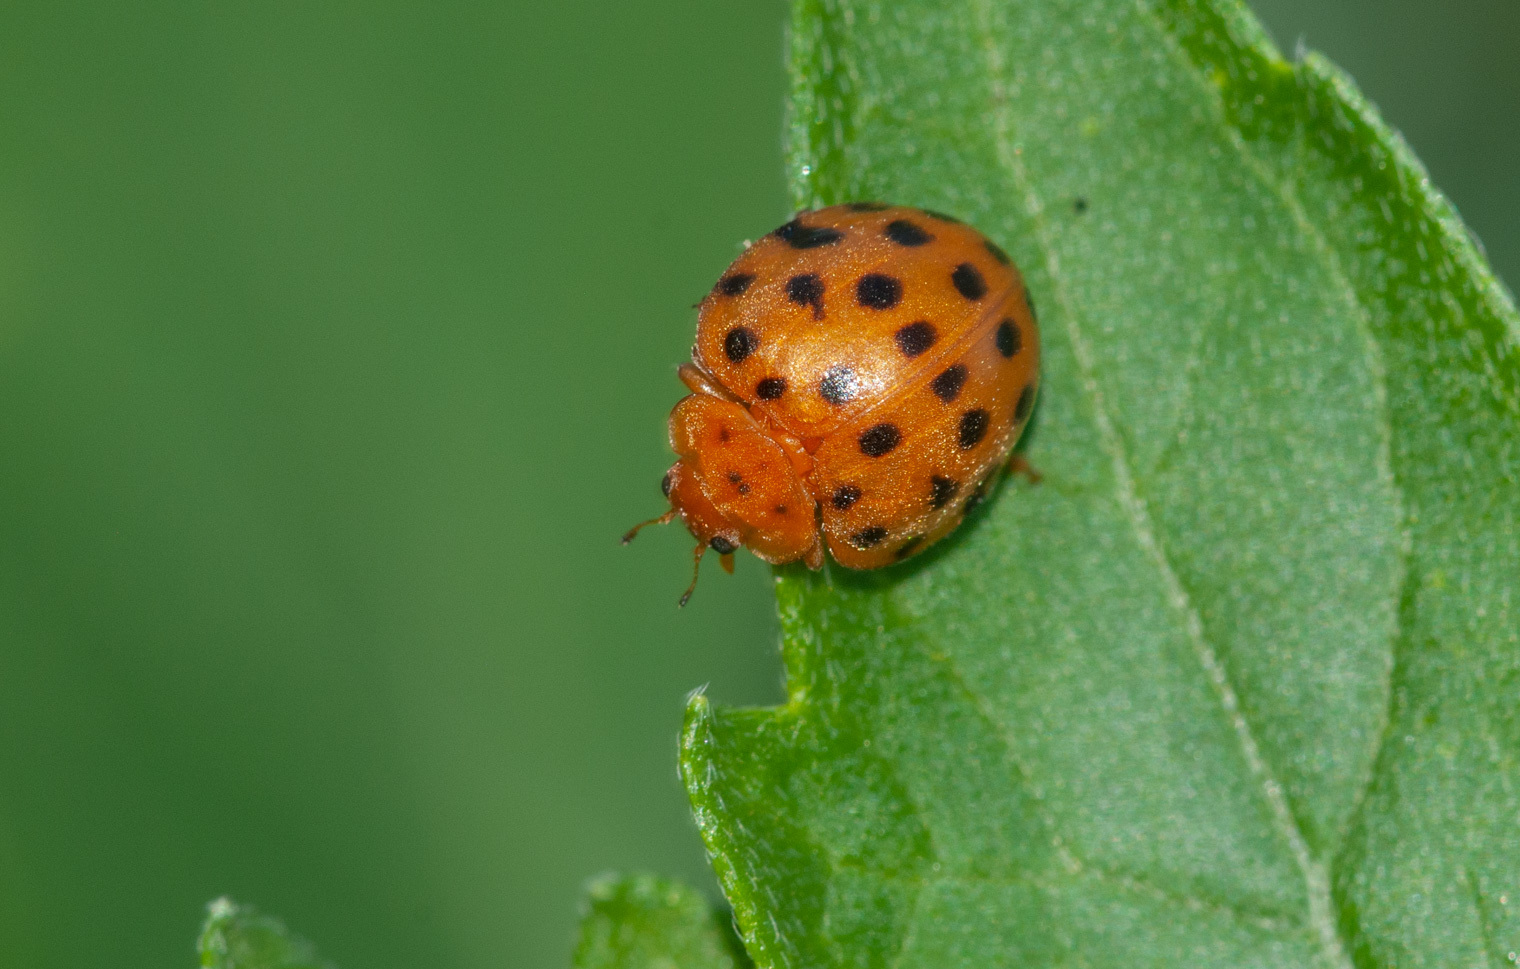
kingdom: Animalia
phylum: Arthropoda
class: Insecta
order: Coleoptera
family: Coccinellidae
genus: Henosepilachna
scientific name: Henosepilachna sumbana
